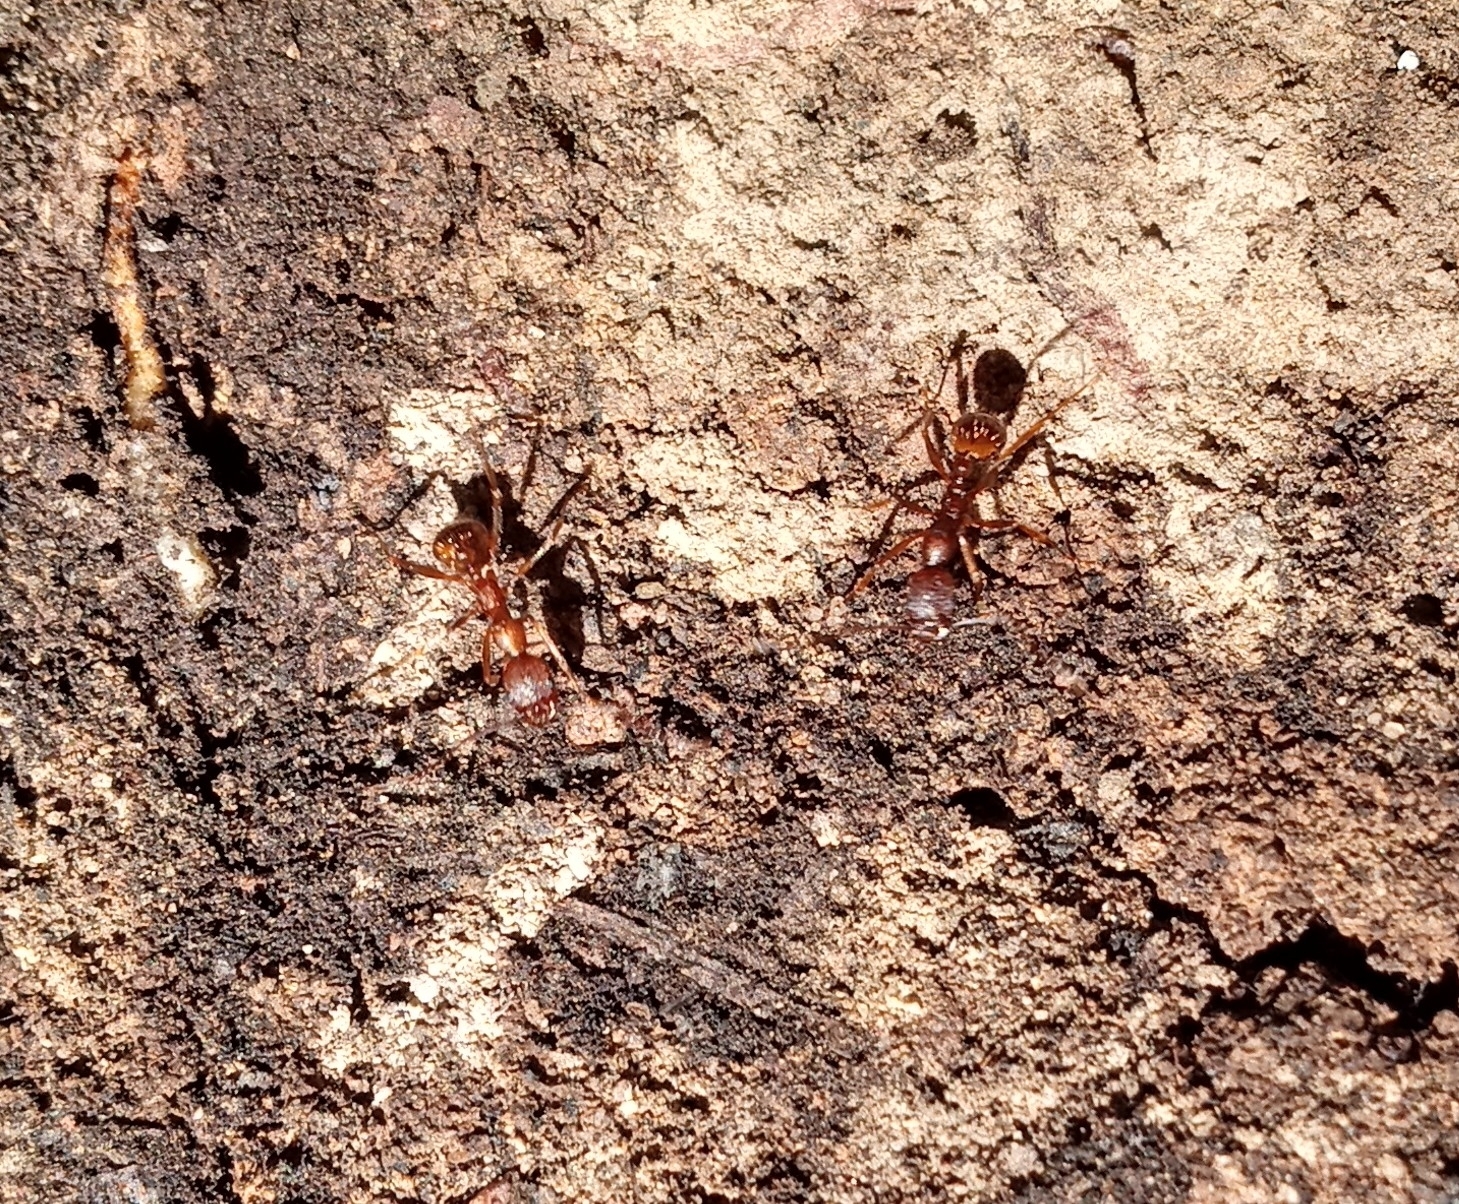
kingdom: Animalia
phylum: Arthropoda
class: Insecta
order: Hymenoptera
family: Formicidae
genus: Aphaenogaster
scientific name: Aphaenogaster texana
